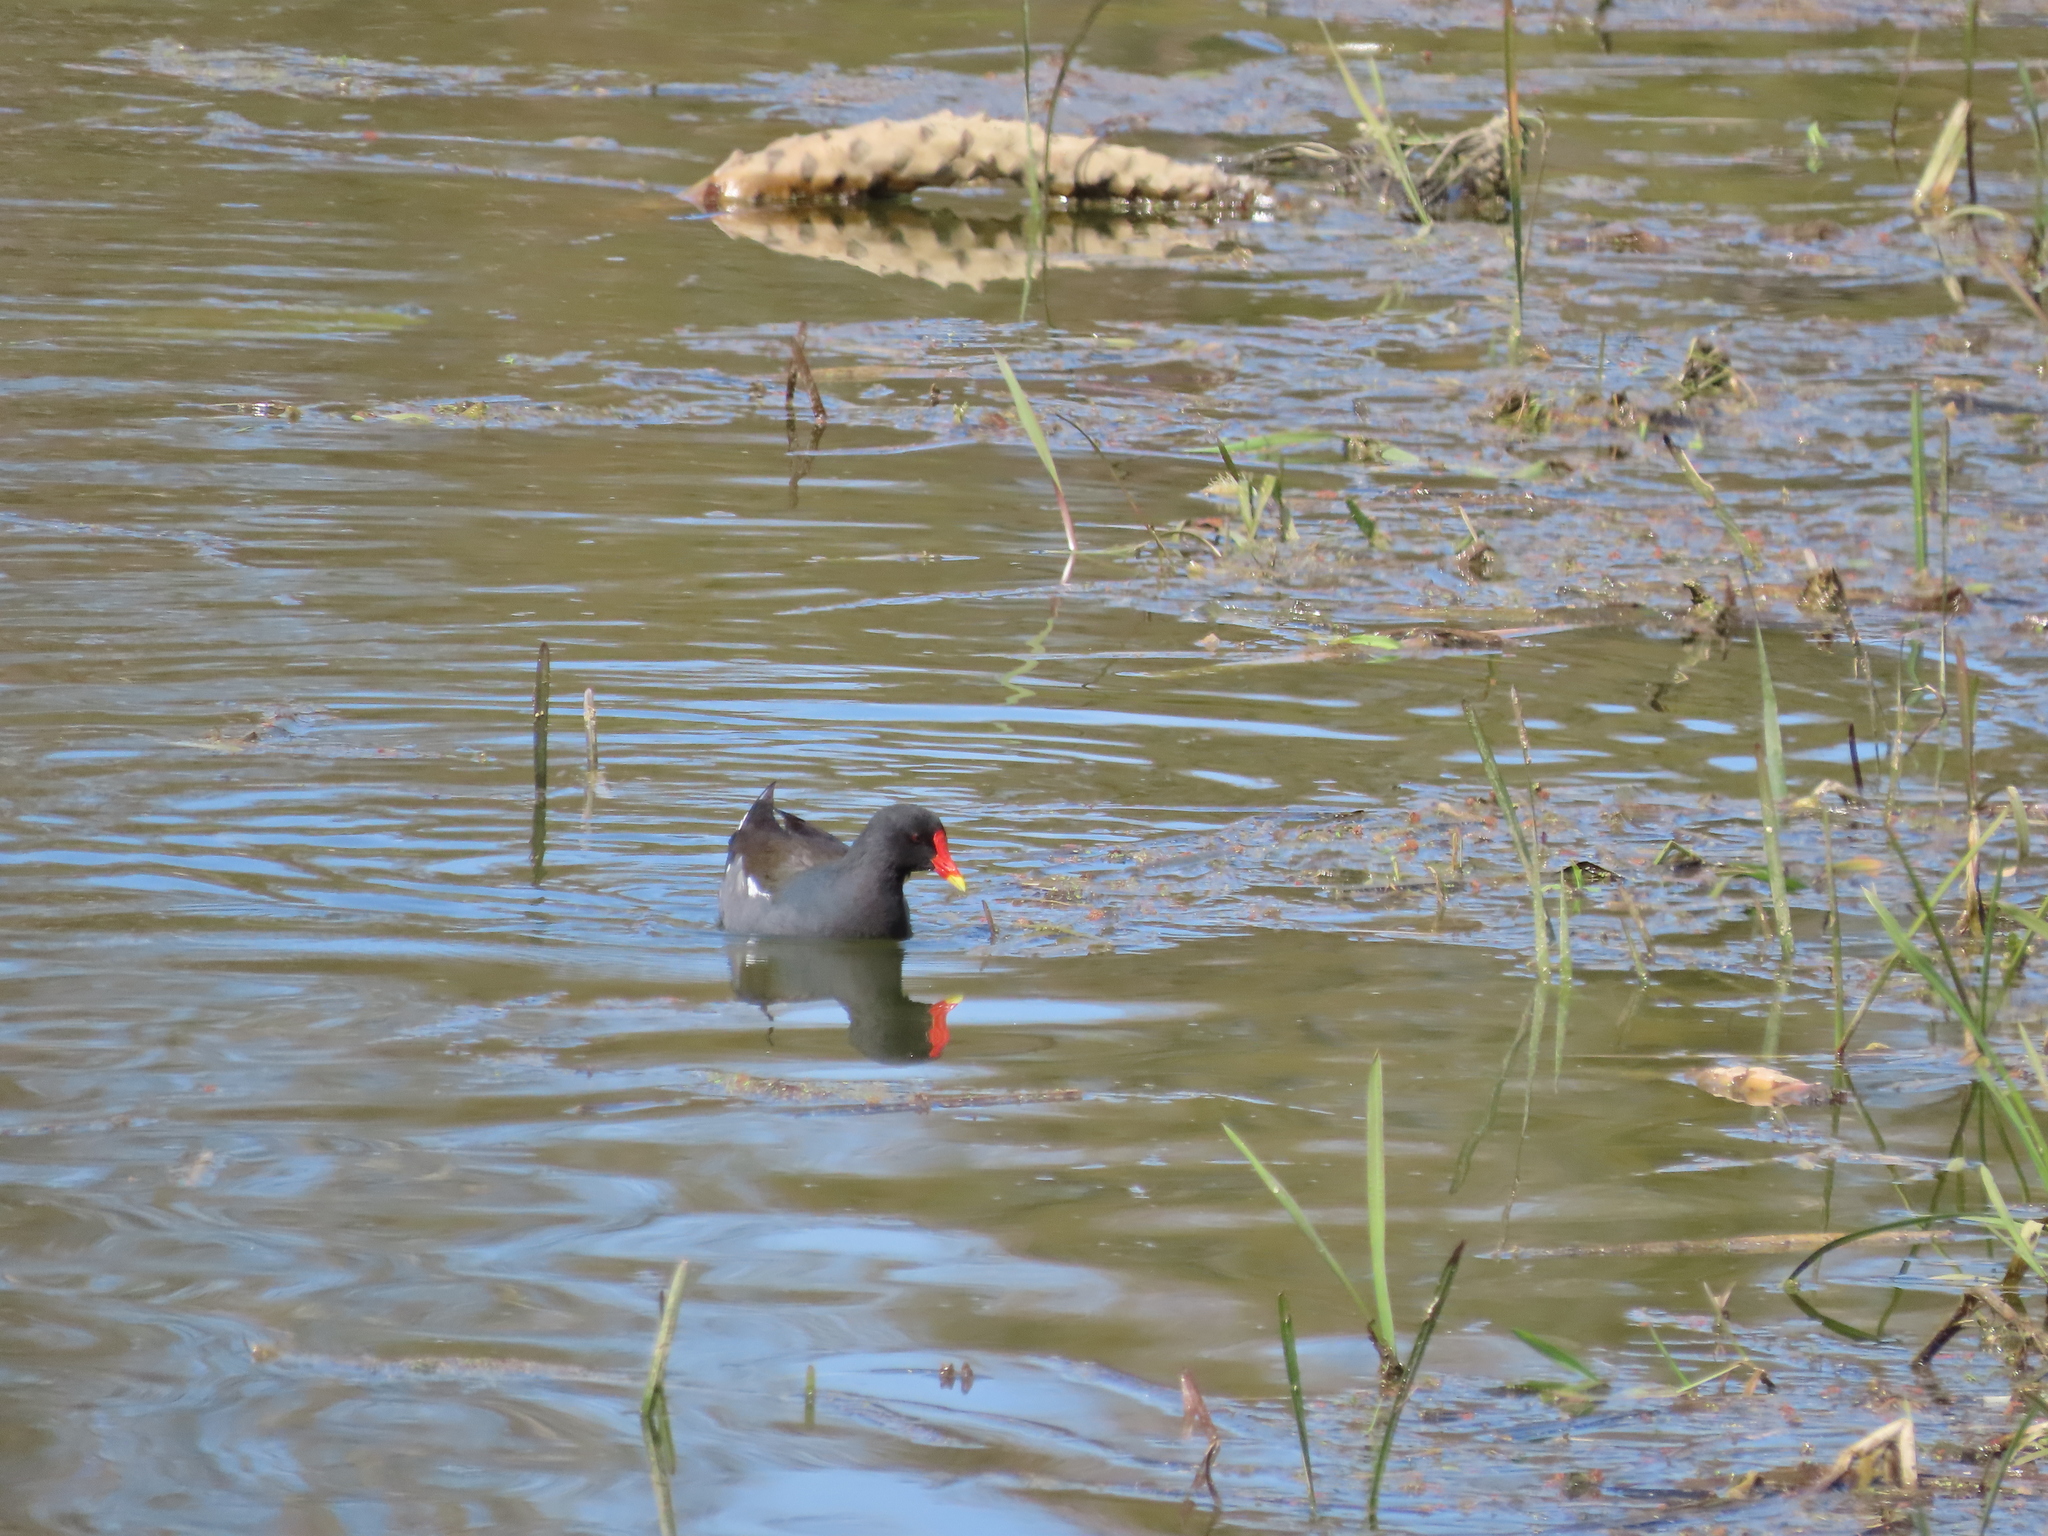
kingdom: Animalia
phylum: Chordata
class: Aves
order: Gruiformes
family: Rallidae
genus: Gallinula
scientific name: Gallinula chloropus
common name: Common moorhen
